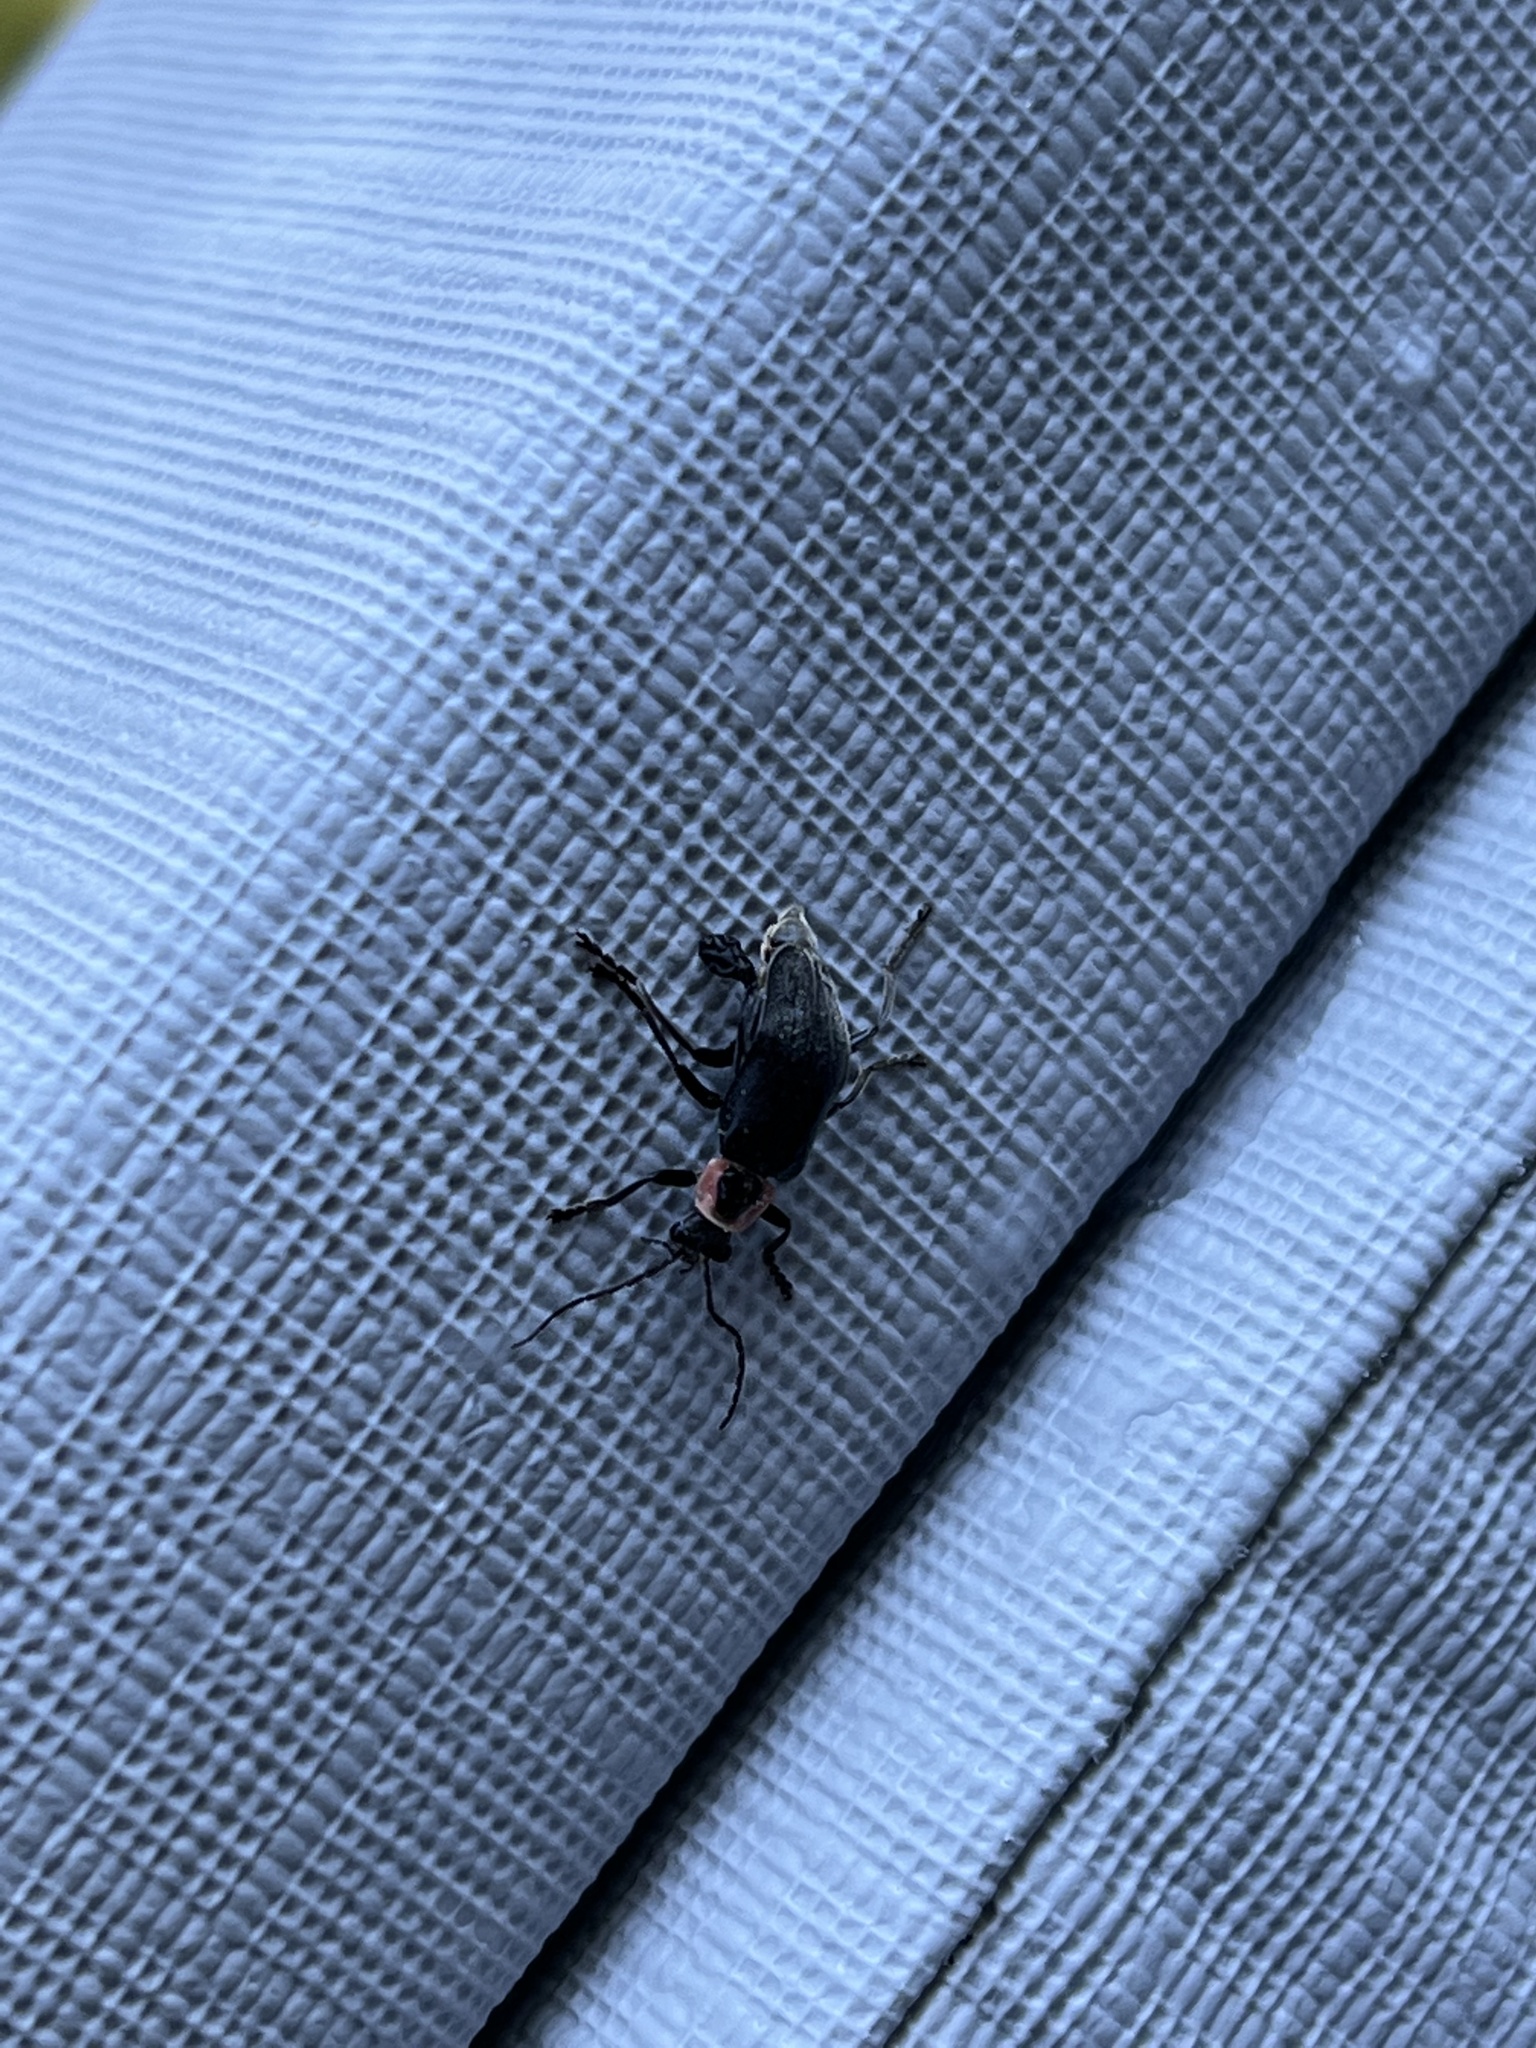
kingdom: Animalia
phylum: Arthropoda
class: Insecta
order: Coleoptera
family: Cantharidae
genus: Atalantycha
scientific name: Atalantycha neglecta
